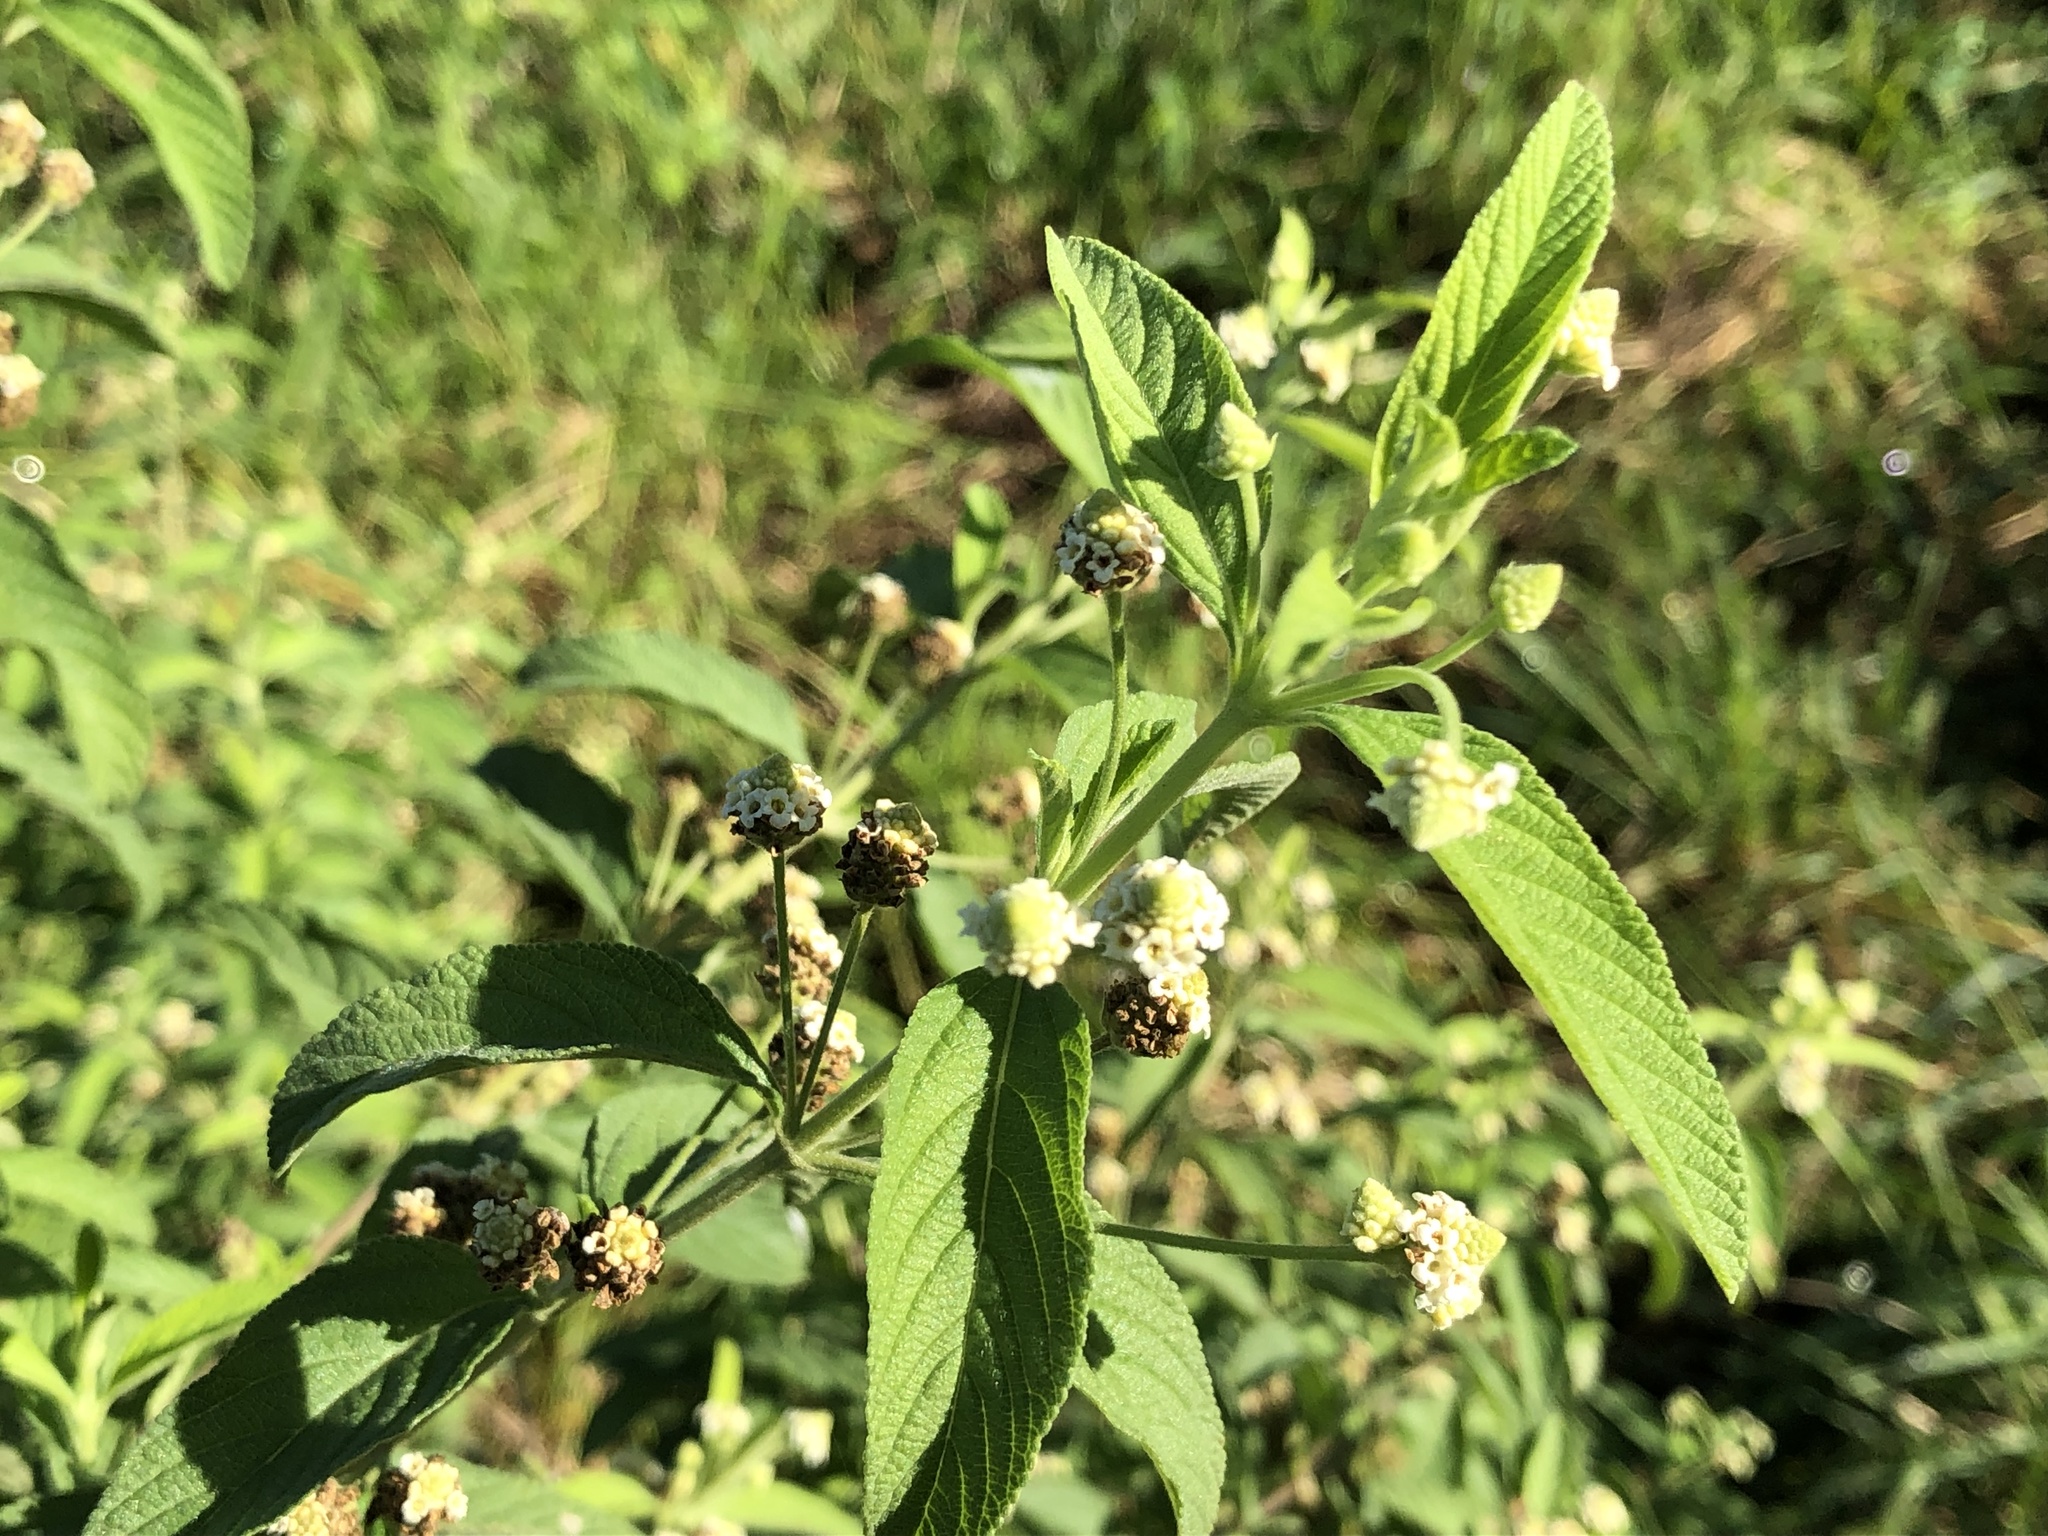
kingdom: Plantae
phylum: Tracheophyta
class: Magnoliopsida
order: Lamiales
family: Verbenaceae
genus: Lippia
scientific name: Lippia javanica
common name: Lemonbush
